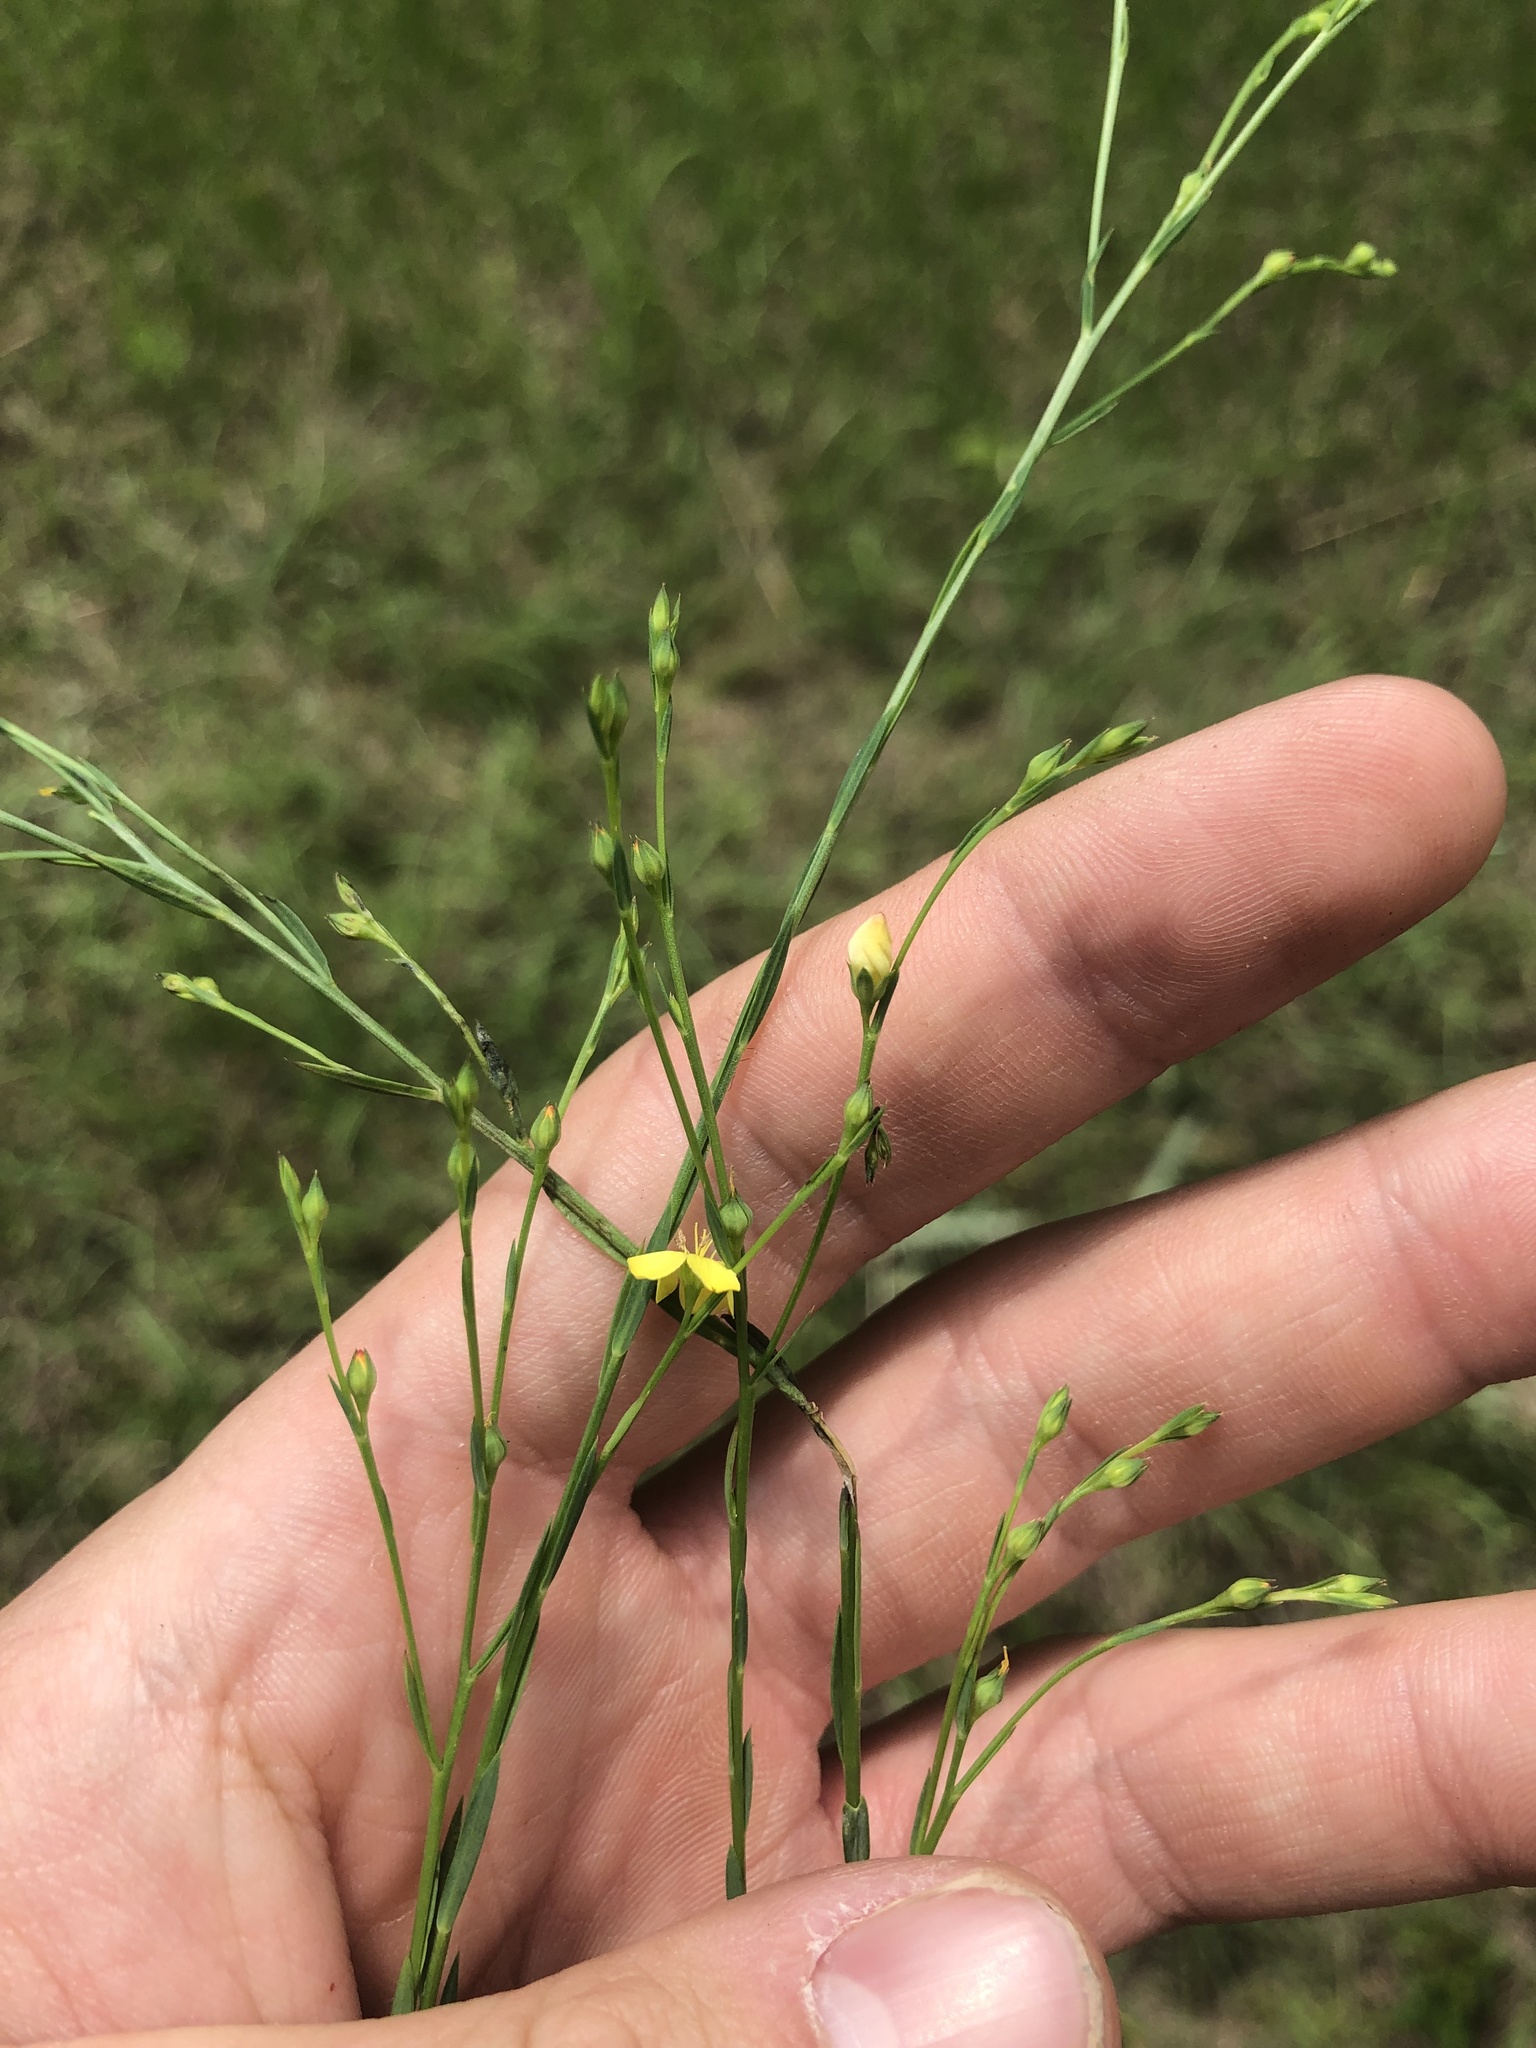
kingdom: Plantae
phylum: Tracheophyta
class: Magnoliopsida
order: Malpighiales
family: Linaceae
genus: Linum
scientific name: Linum floridanum
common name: Florida yellow flax
